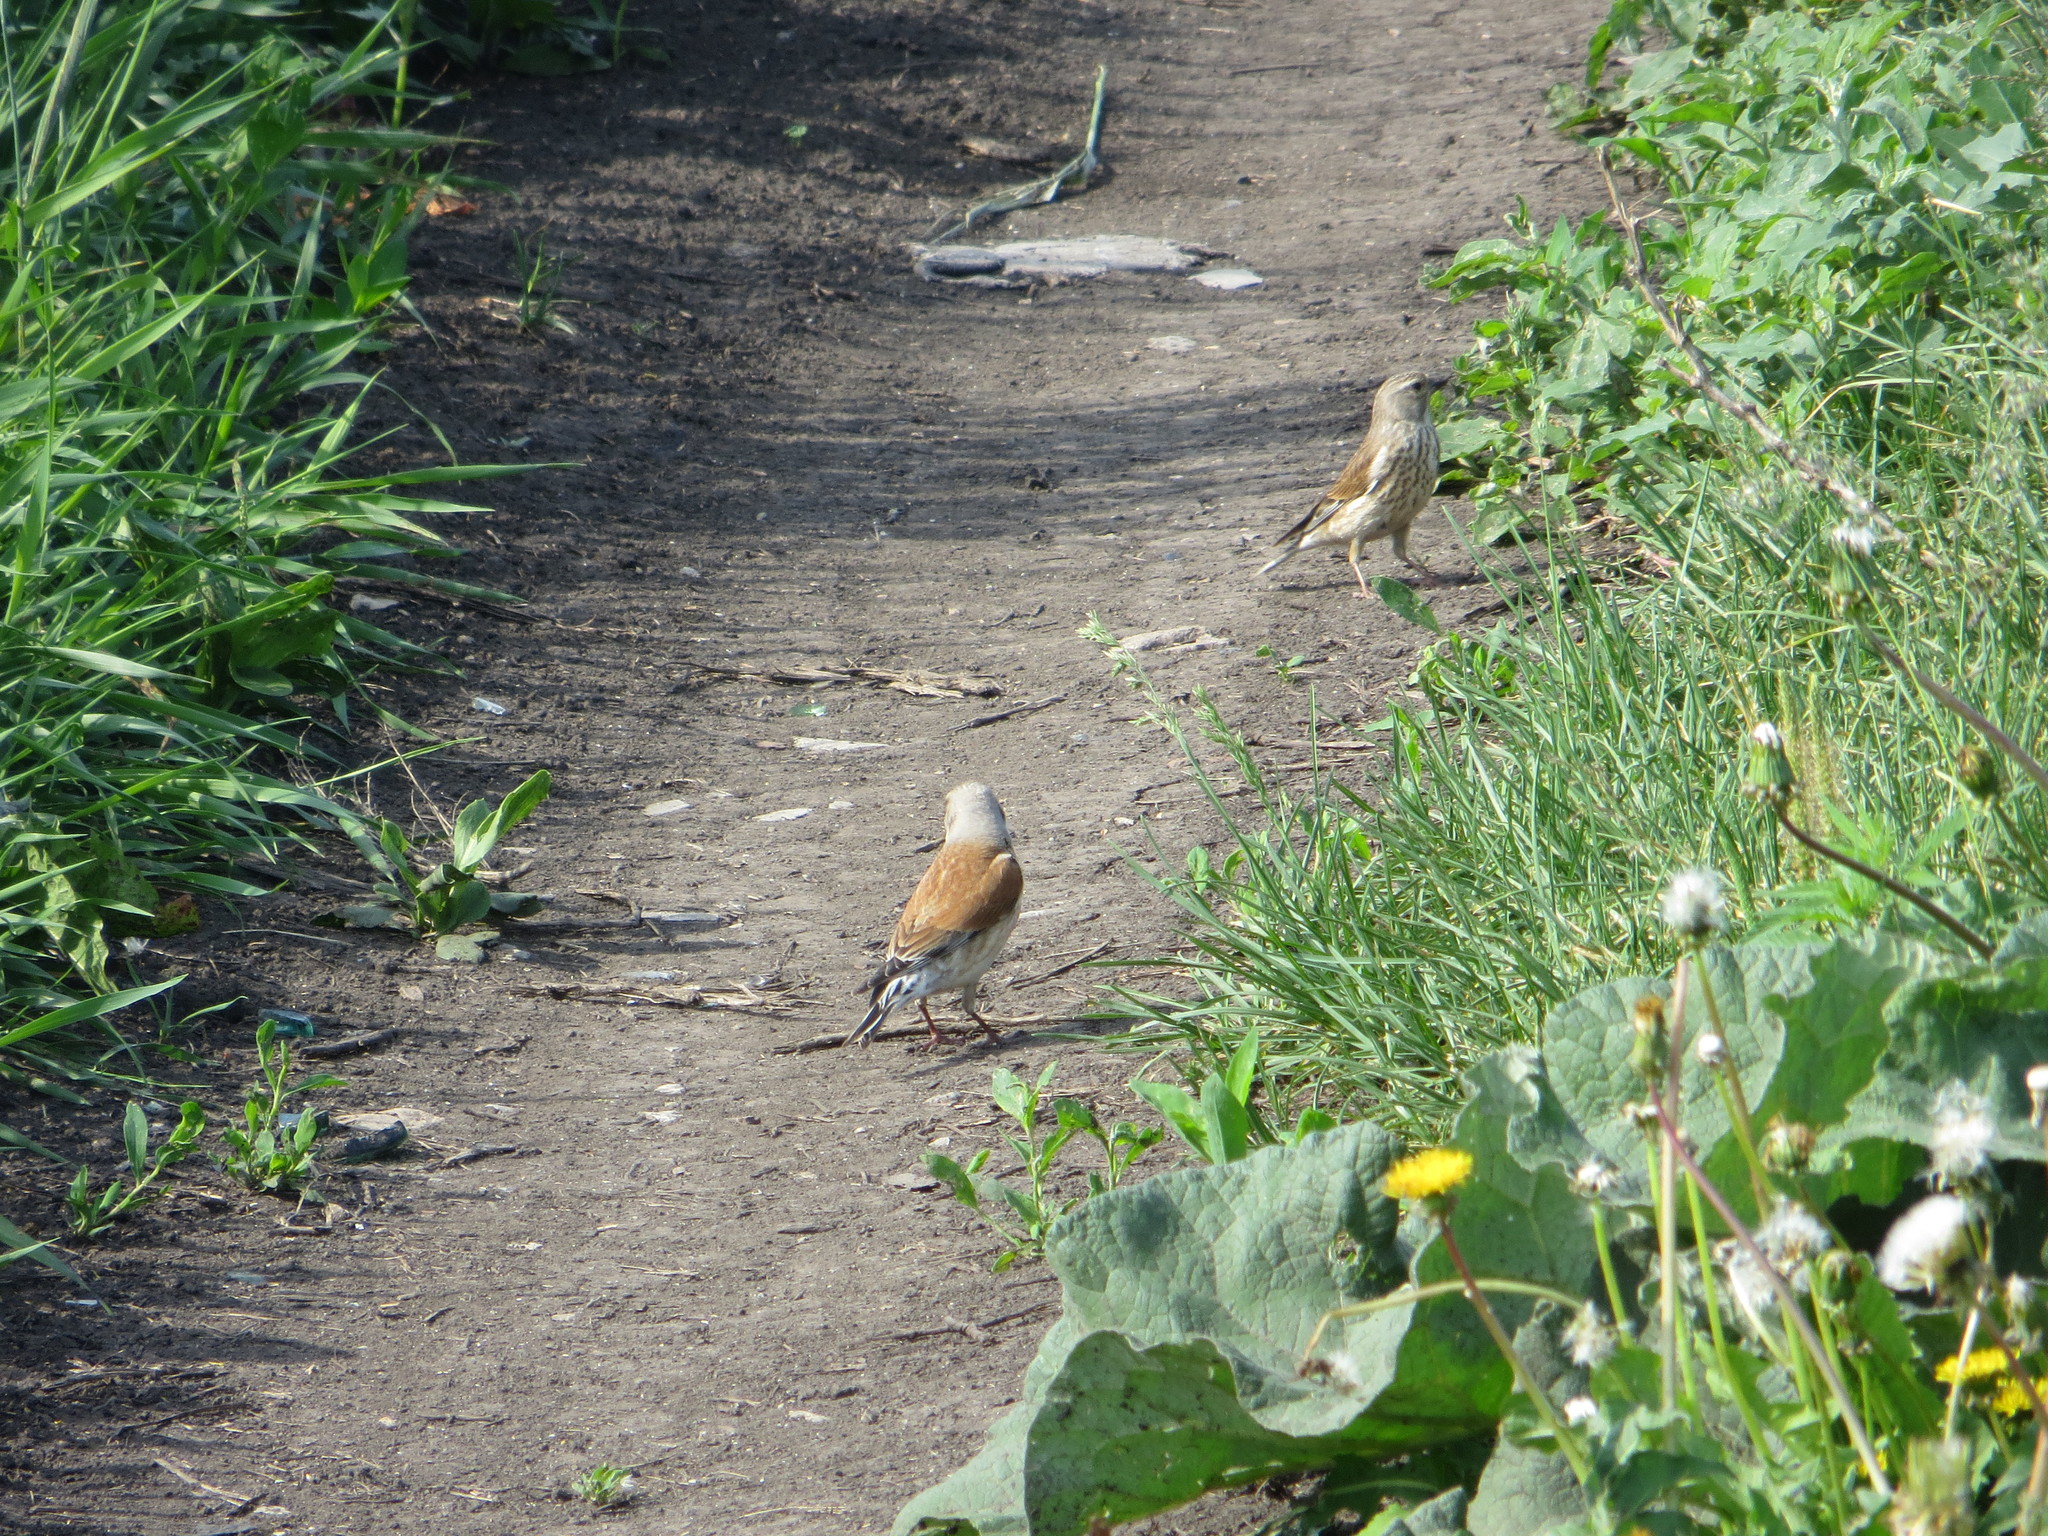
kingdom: Animalia
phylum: Chordata
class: Aves
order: Passeriformes
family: Fringillidae
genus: Linaria
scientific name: Linaria cannabina
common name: Common linnet
